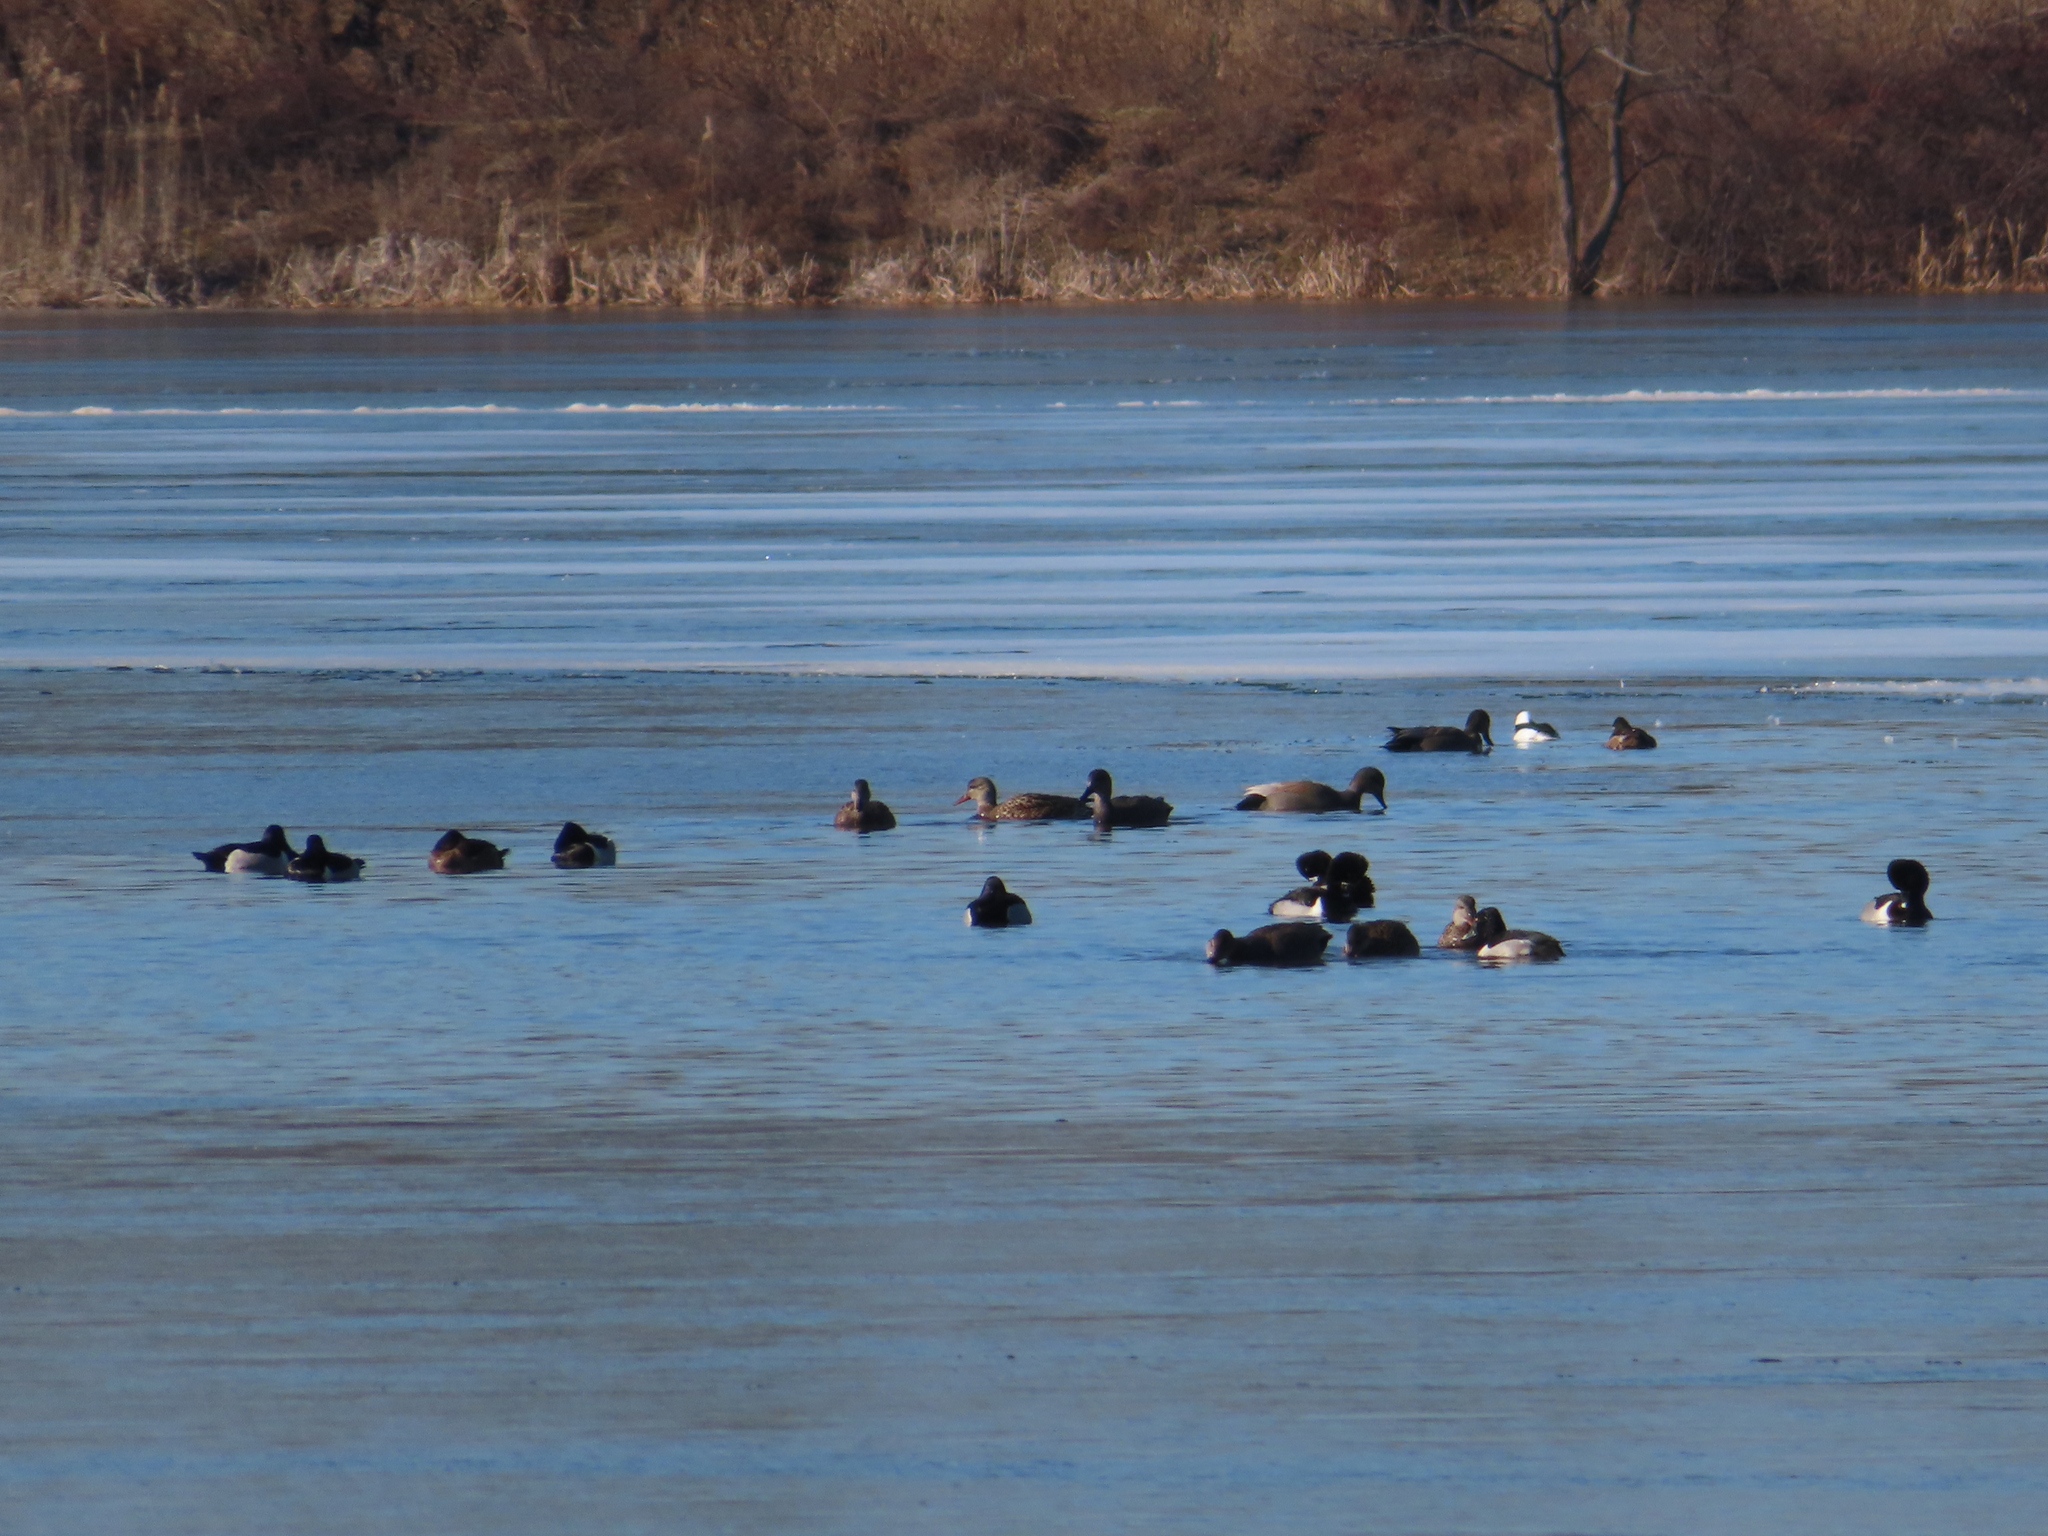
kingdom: Animalia
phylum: Chordata
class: Aves
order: Anseriformes
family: Anatidae
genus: Mareca
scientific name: Mareca strepera
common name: Gadwall
